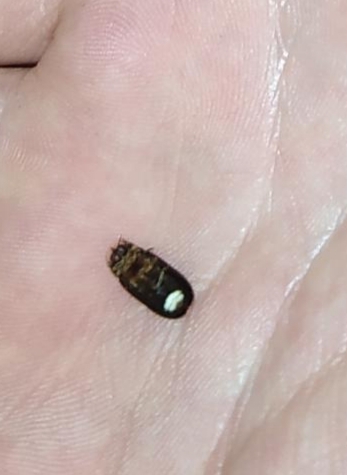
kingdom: Animalia
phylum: Arthropoda
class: Insecta
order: Coleoptera
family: Lampyridae
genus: Lamprohiza
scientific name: Lamprohiza splendidula
